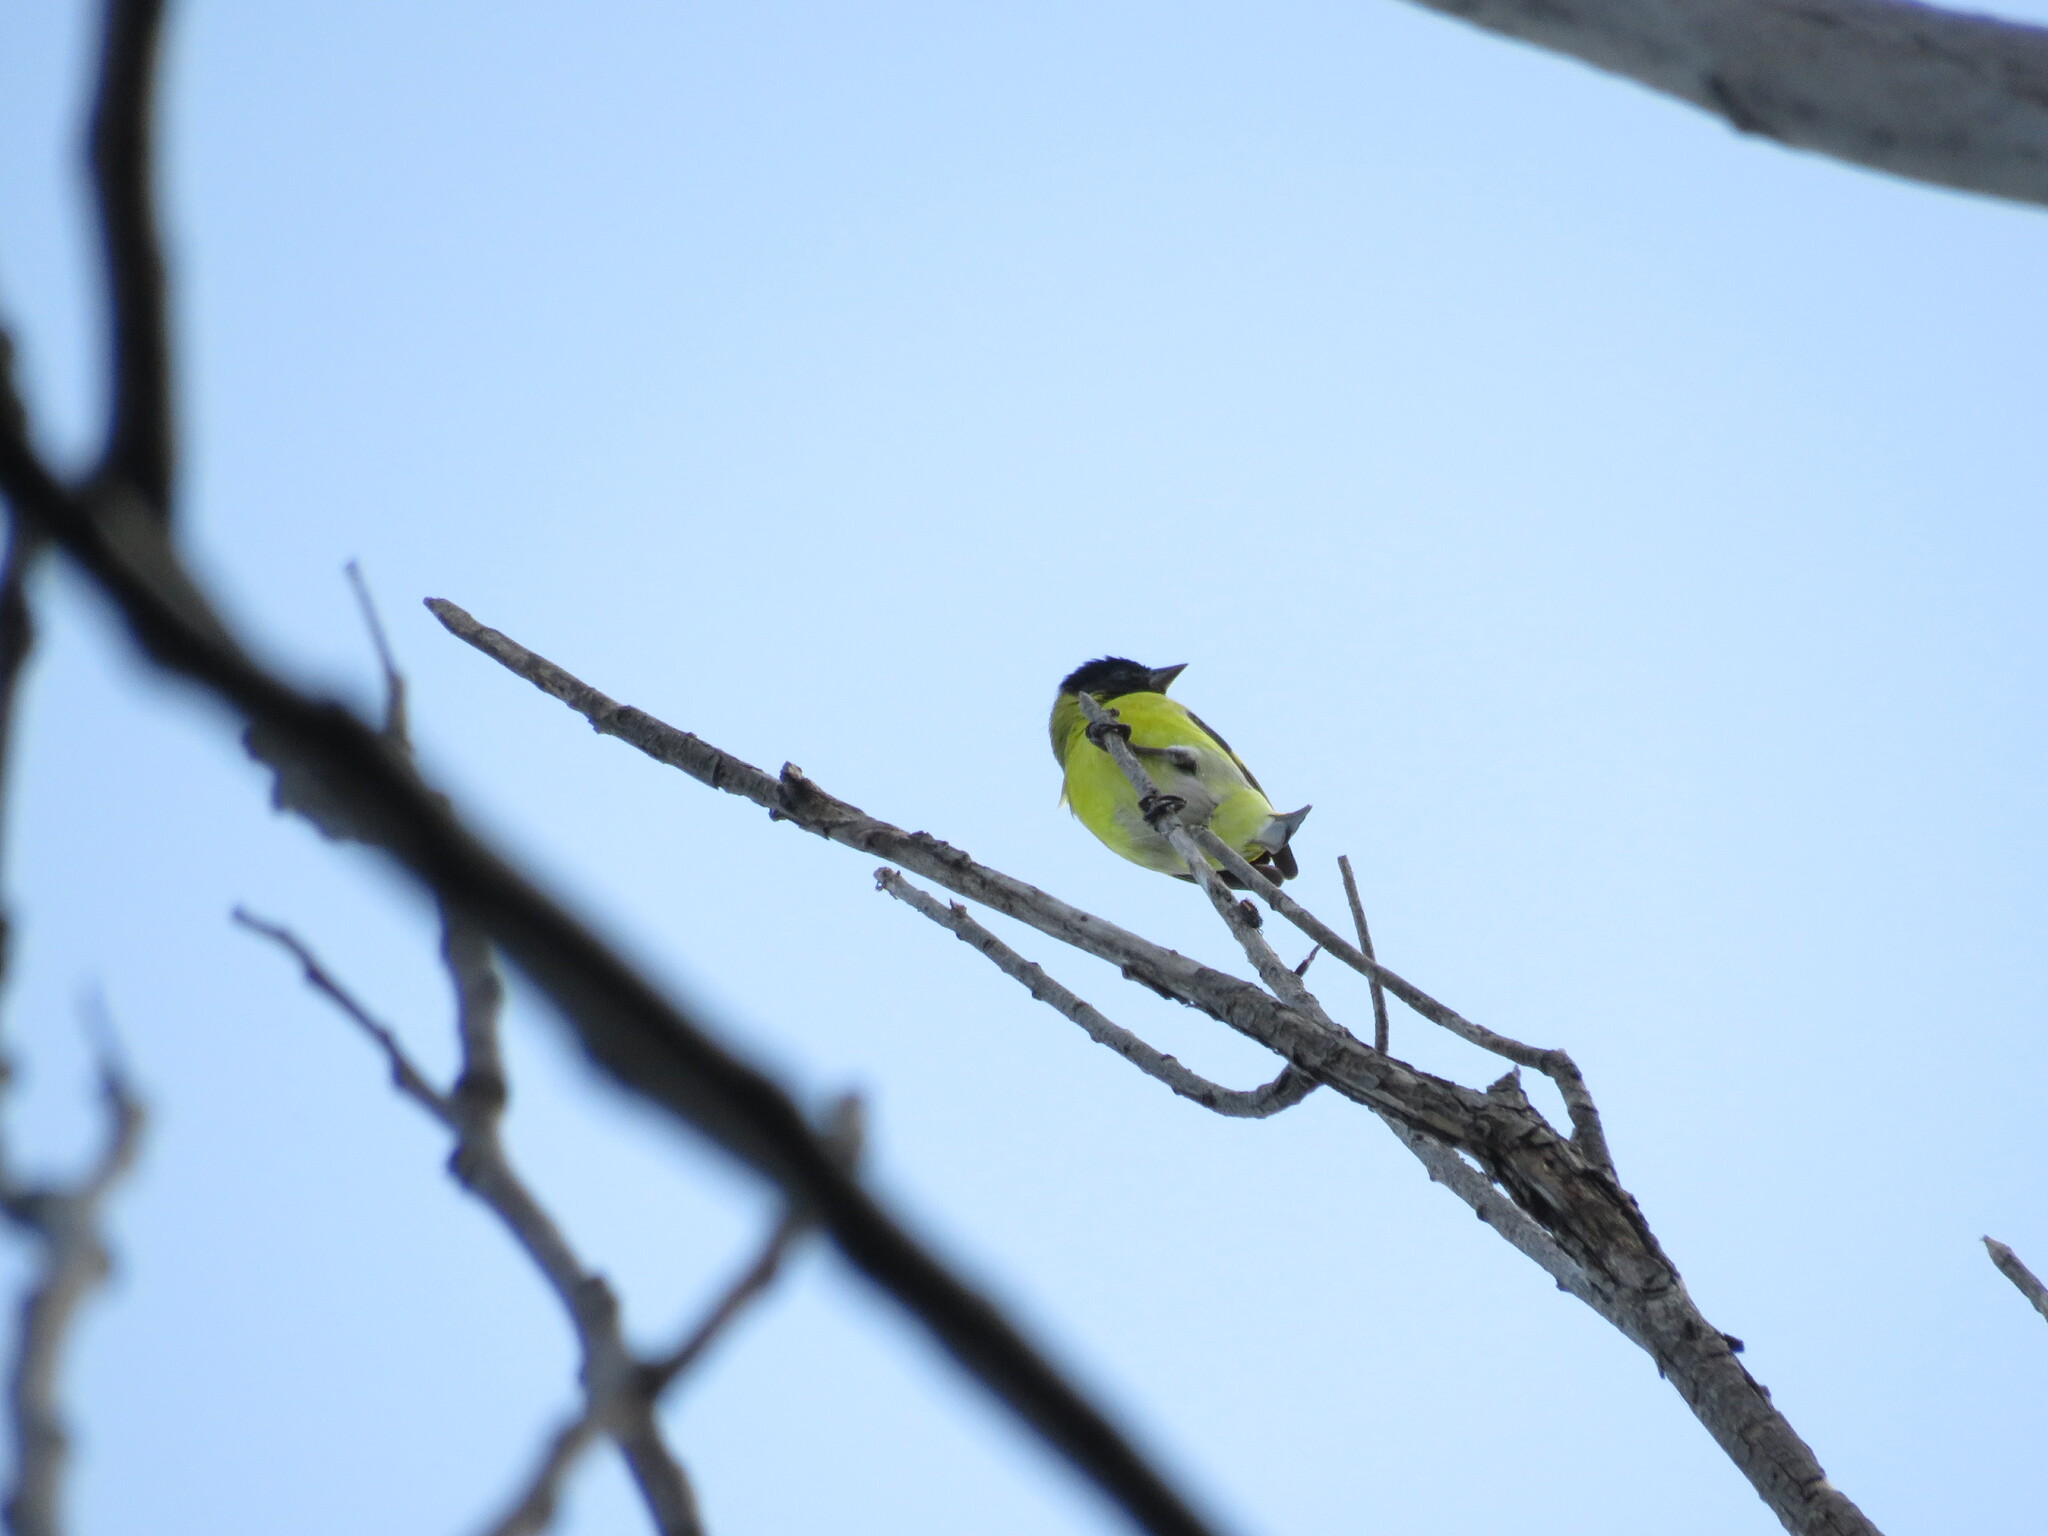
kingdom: Animalia
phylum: Chordata
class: Aves
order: Passeriformes
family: Fringillidae
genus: Spinus
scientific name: Spinus magellanicus
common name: Hooded siskin
